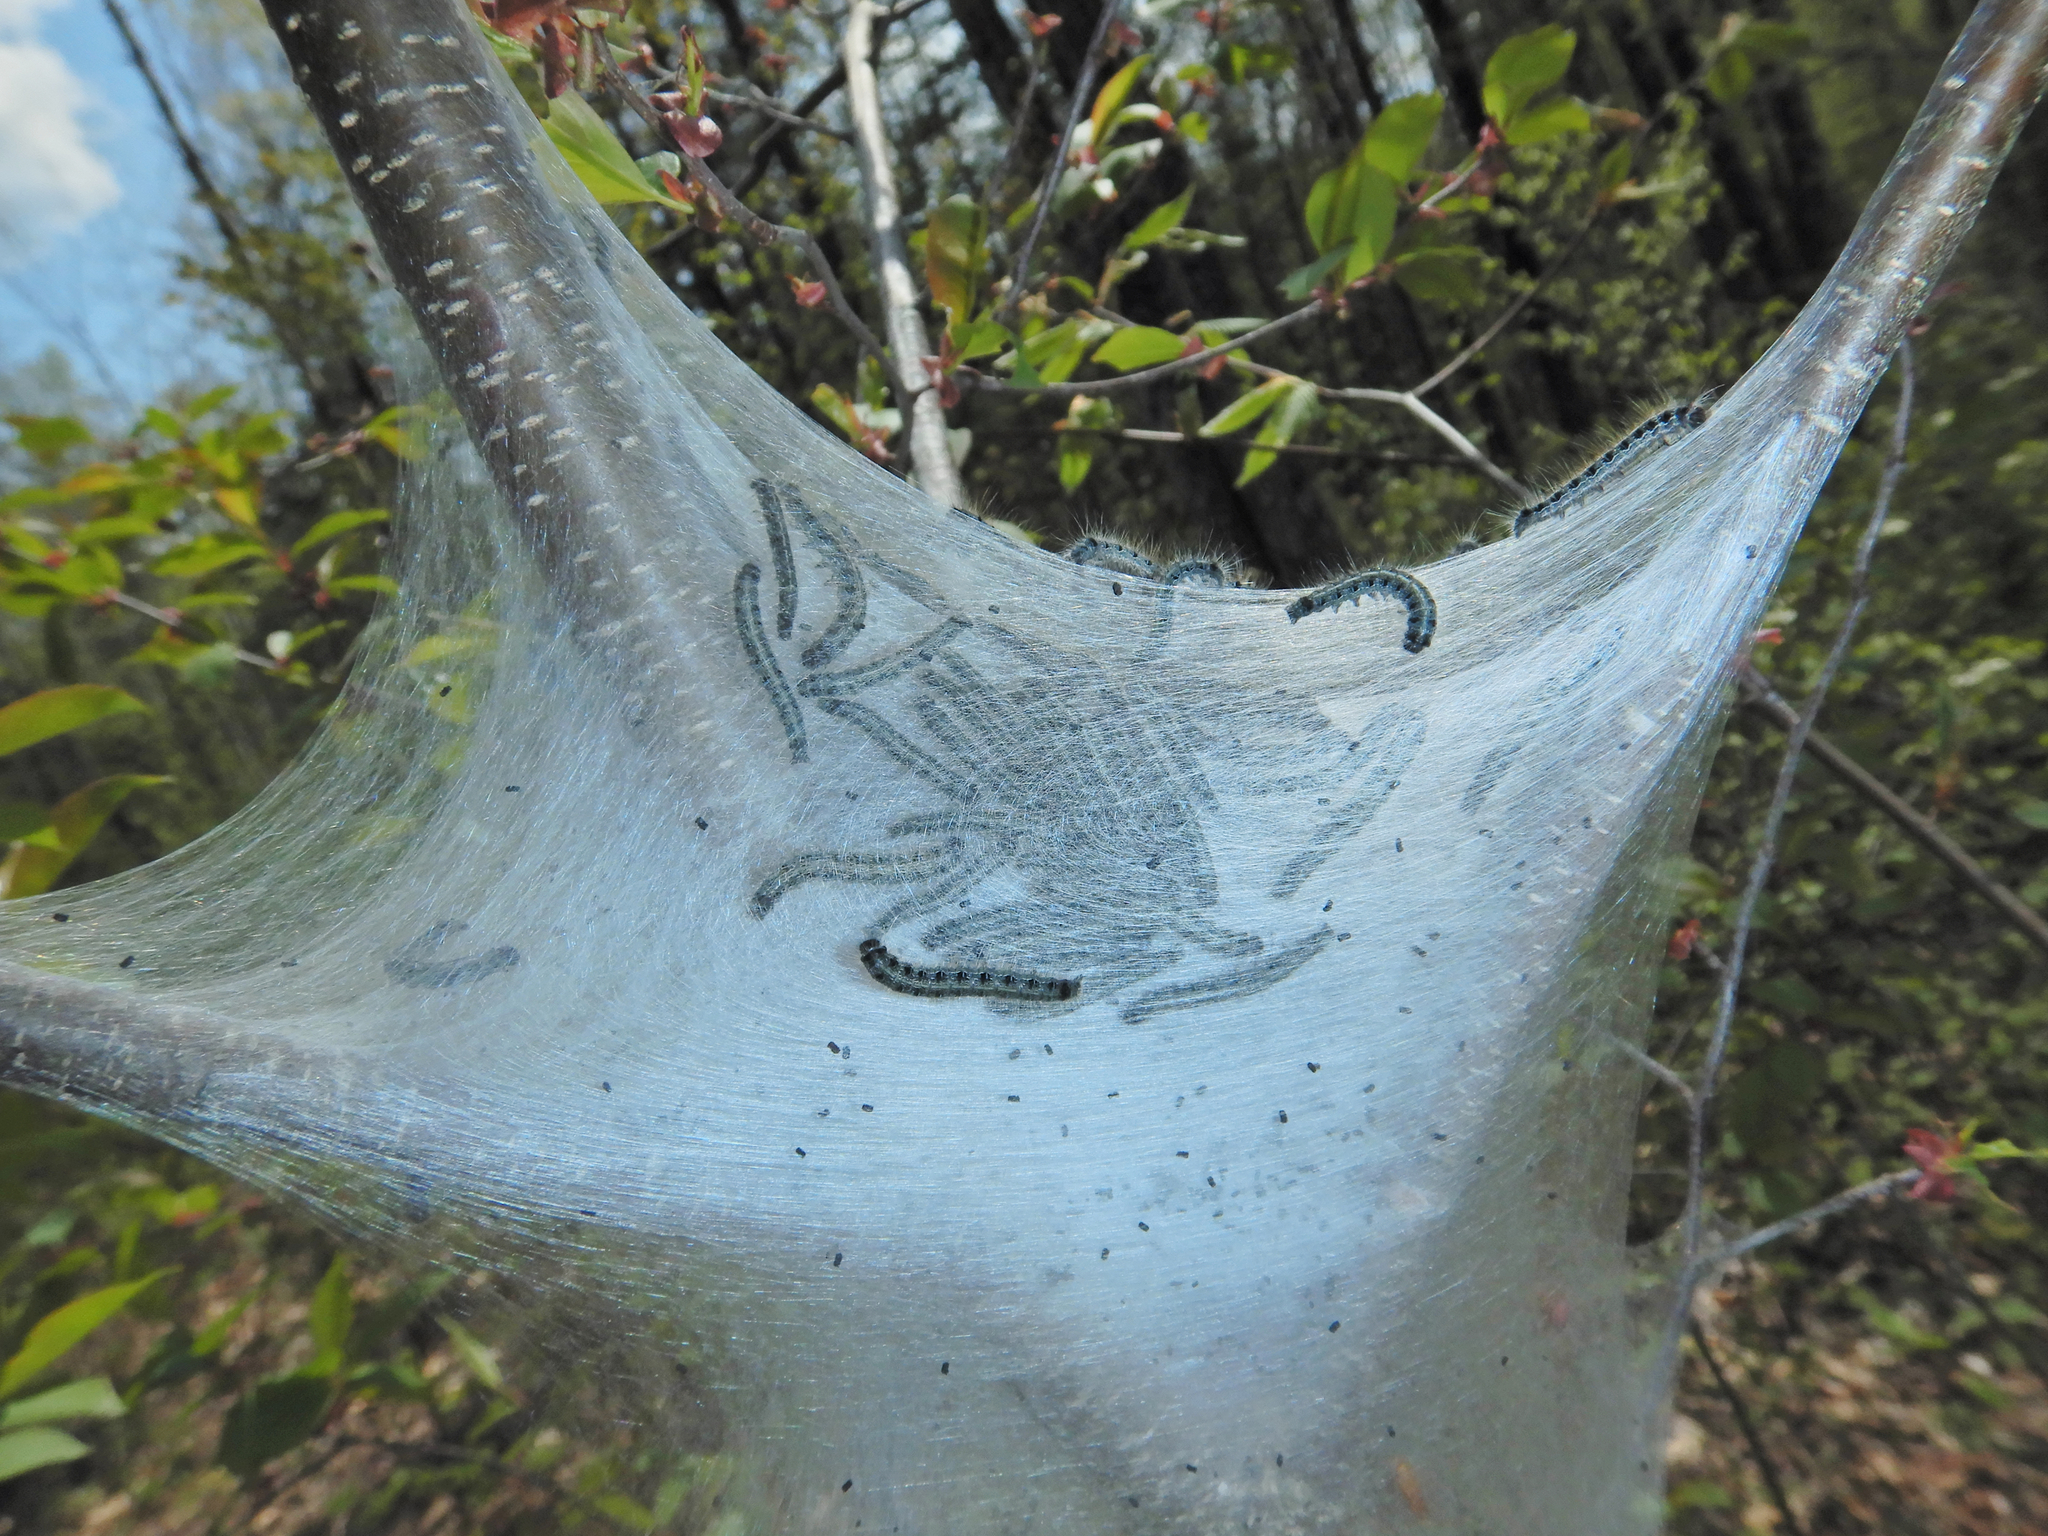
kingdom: Animalia
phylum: Arthropoda
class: Insecta
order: Lepidoptera
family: Lasiocampidae
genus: Malacosoma
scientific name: Malacosoma americana
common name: Eastern tent caterpillar moth
